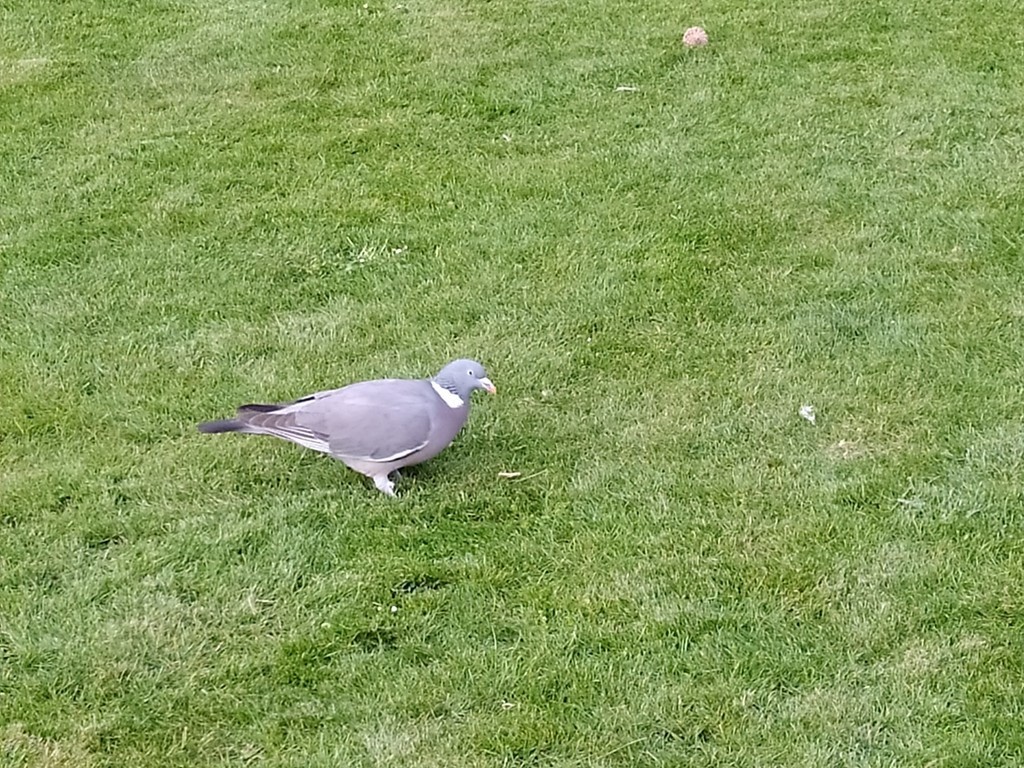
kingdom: Animalia
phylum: Chordata
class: Aves
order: Columbiformes
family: Columbidae
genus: Columba
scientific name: Columba palumbus
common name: Common wood pigeon
